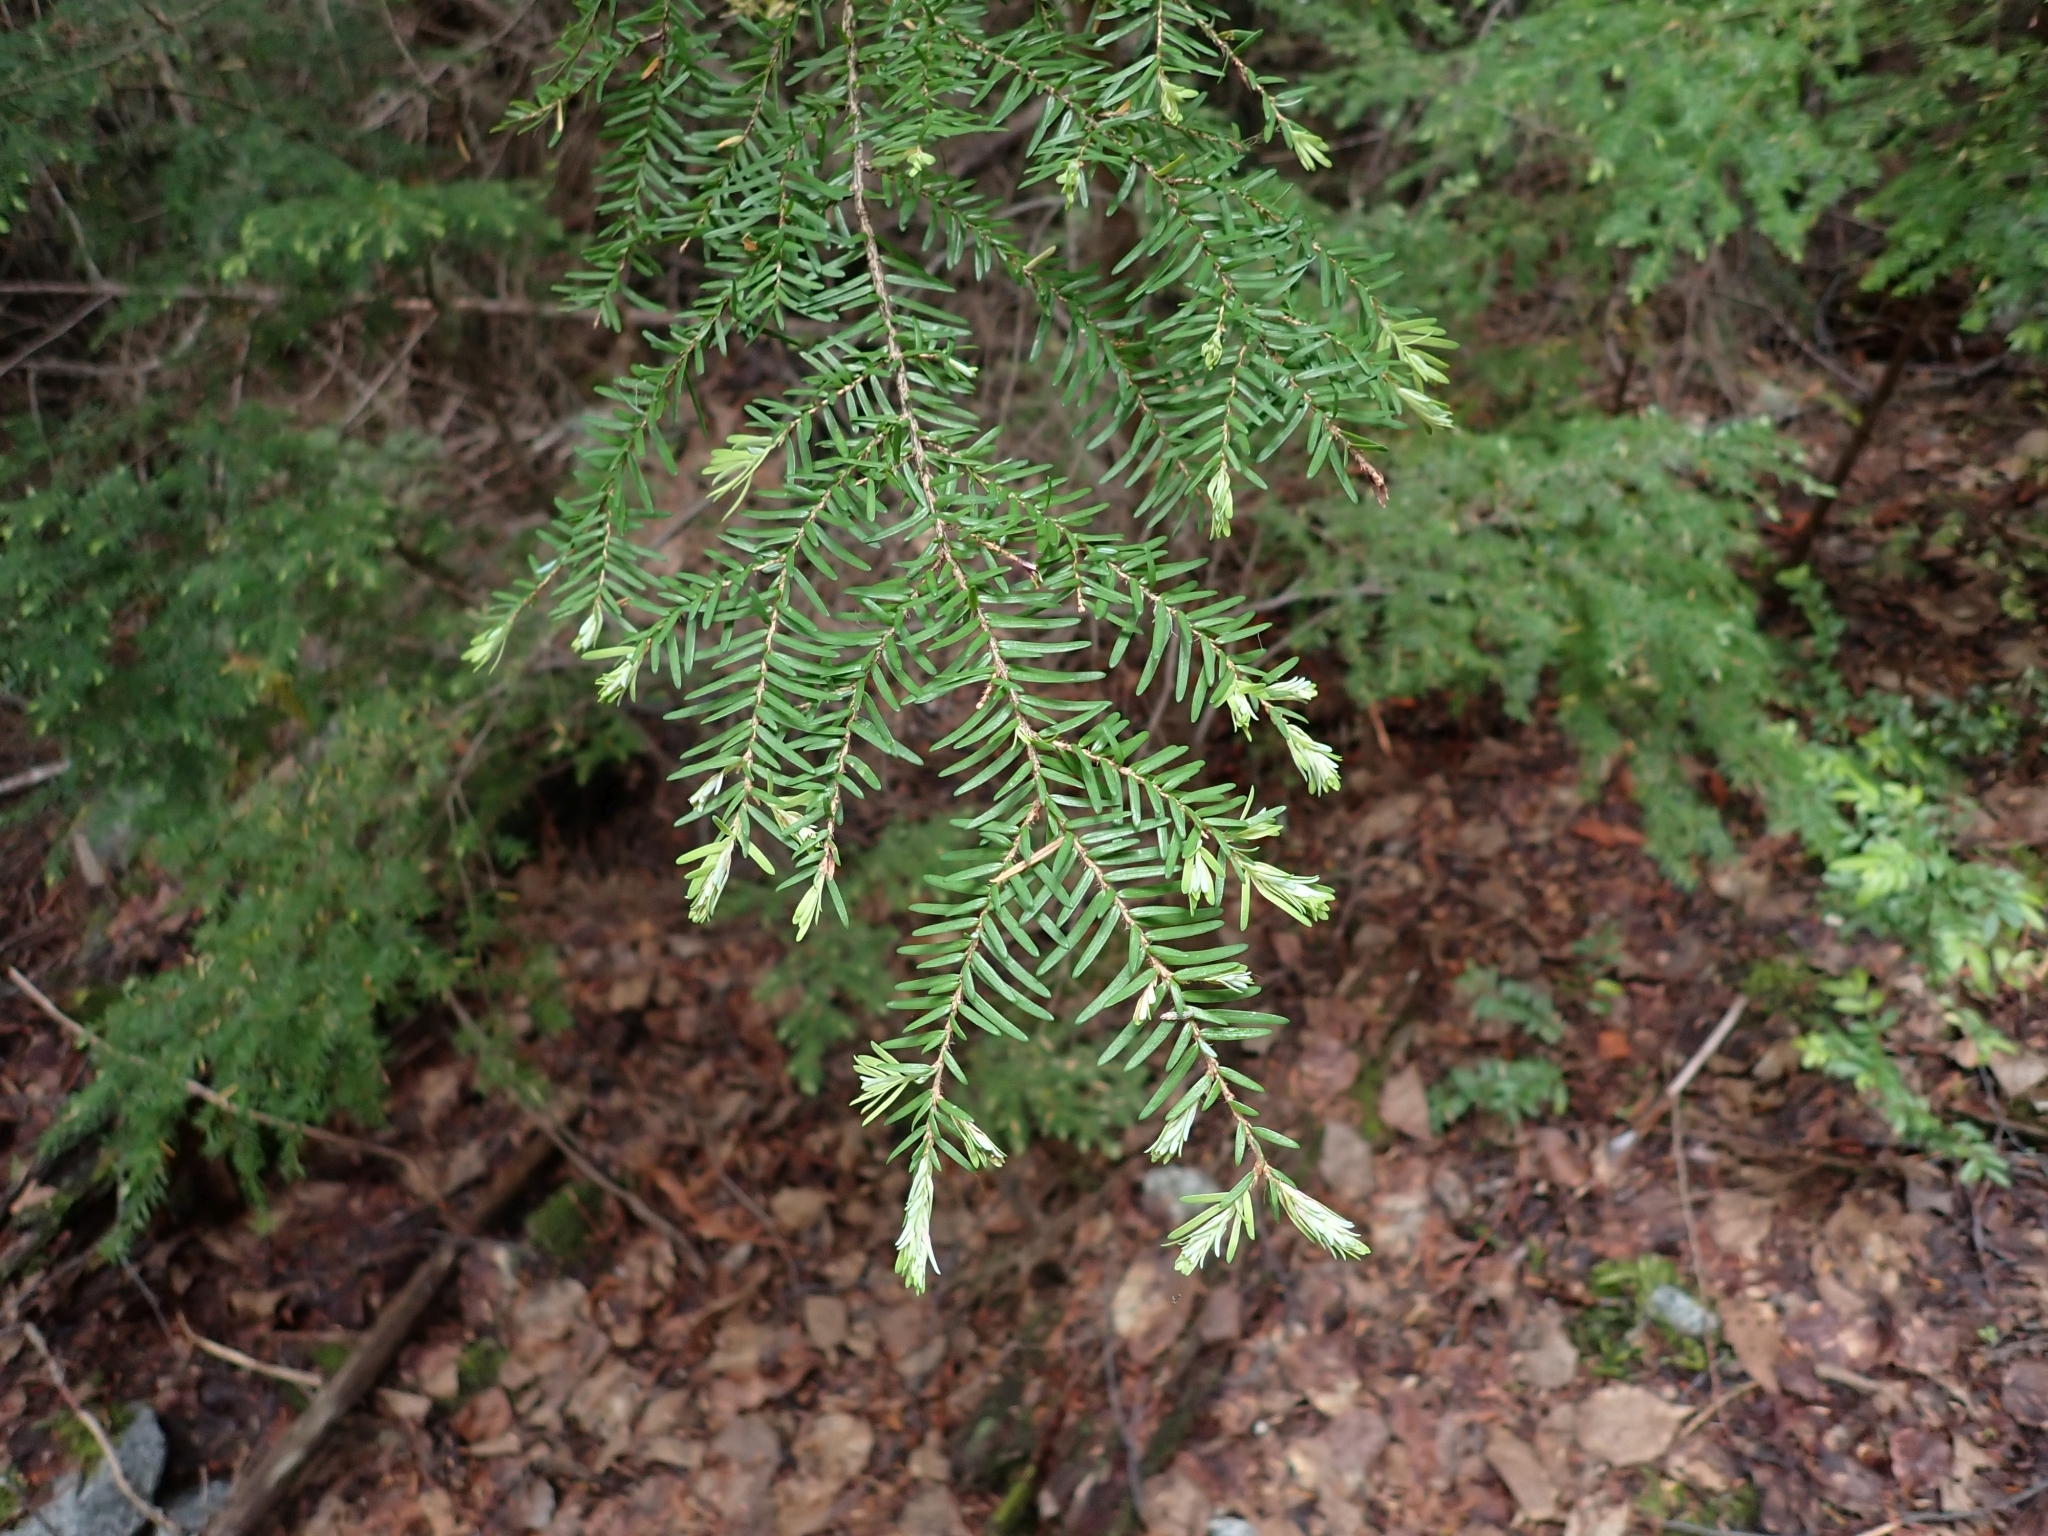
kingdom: Plantae
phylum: Tracheophyta
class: Pinopsida
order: Pinales
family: Pinaceae
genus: Tsuga
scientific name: Tsuga heterophylla
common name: Western hemlock
